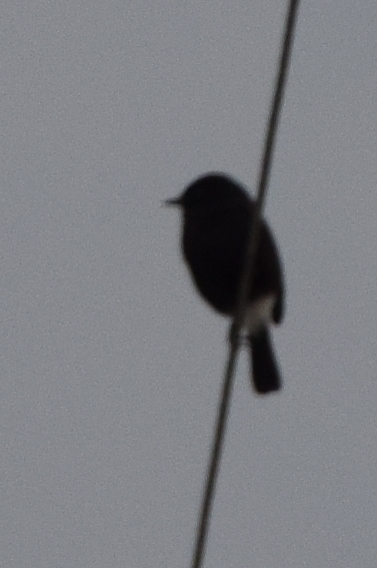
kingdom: Animalia
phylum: Chordata
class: Aves
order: Passeriformes
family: Muscicapidae
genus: Saxicola
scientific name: Saxicola caprata
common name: Pied bush chat
